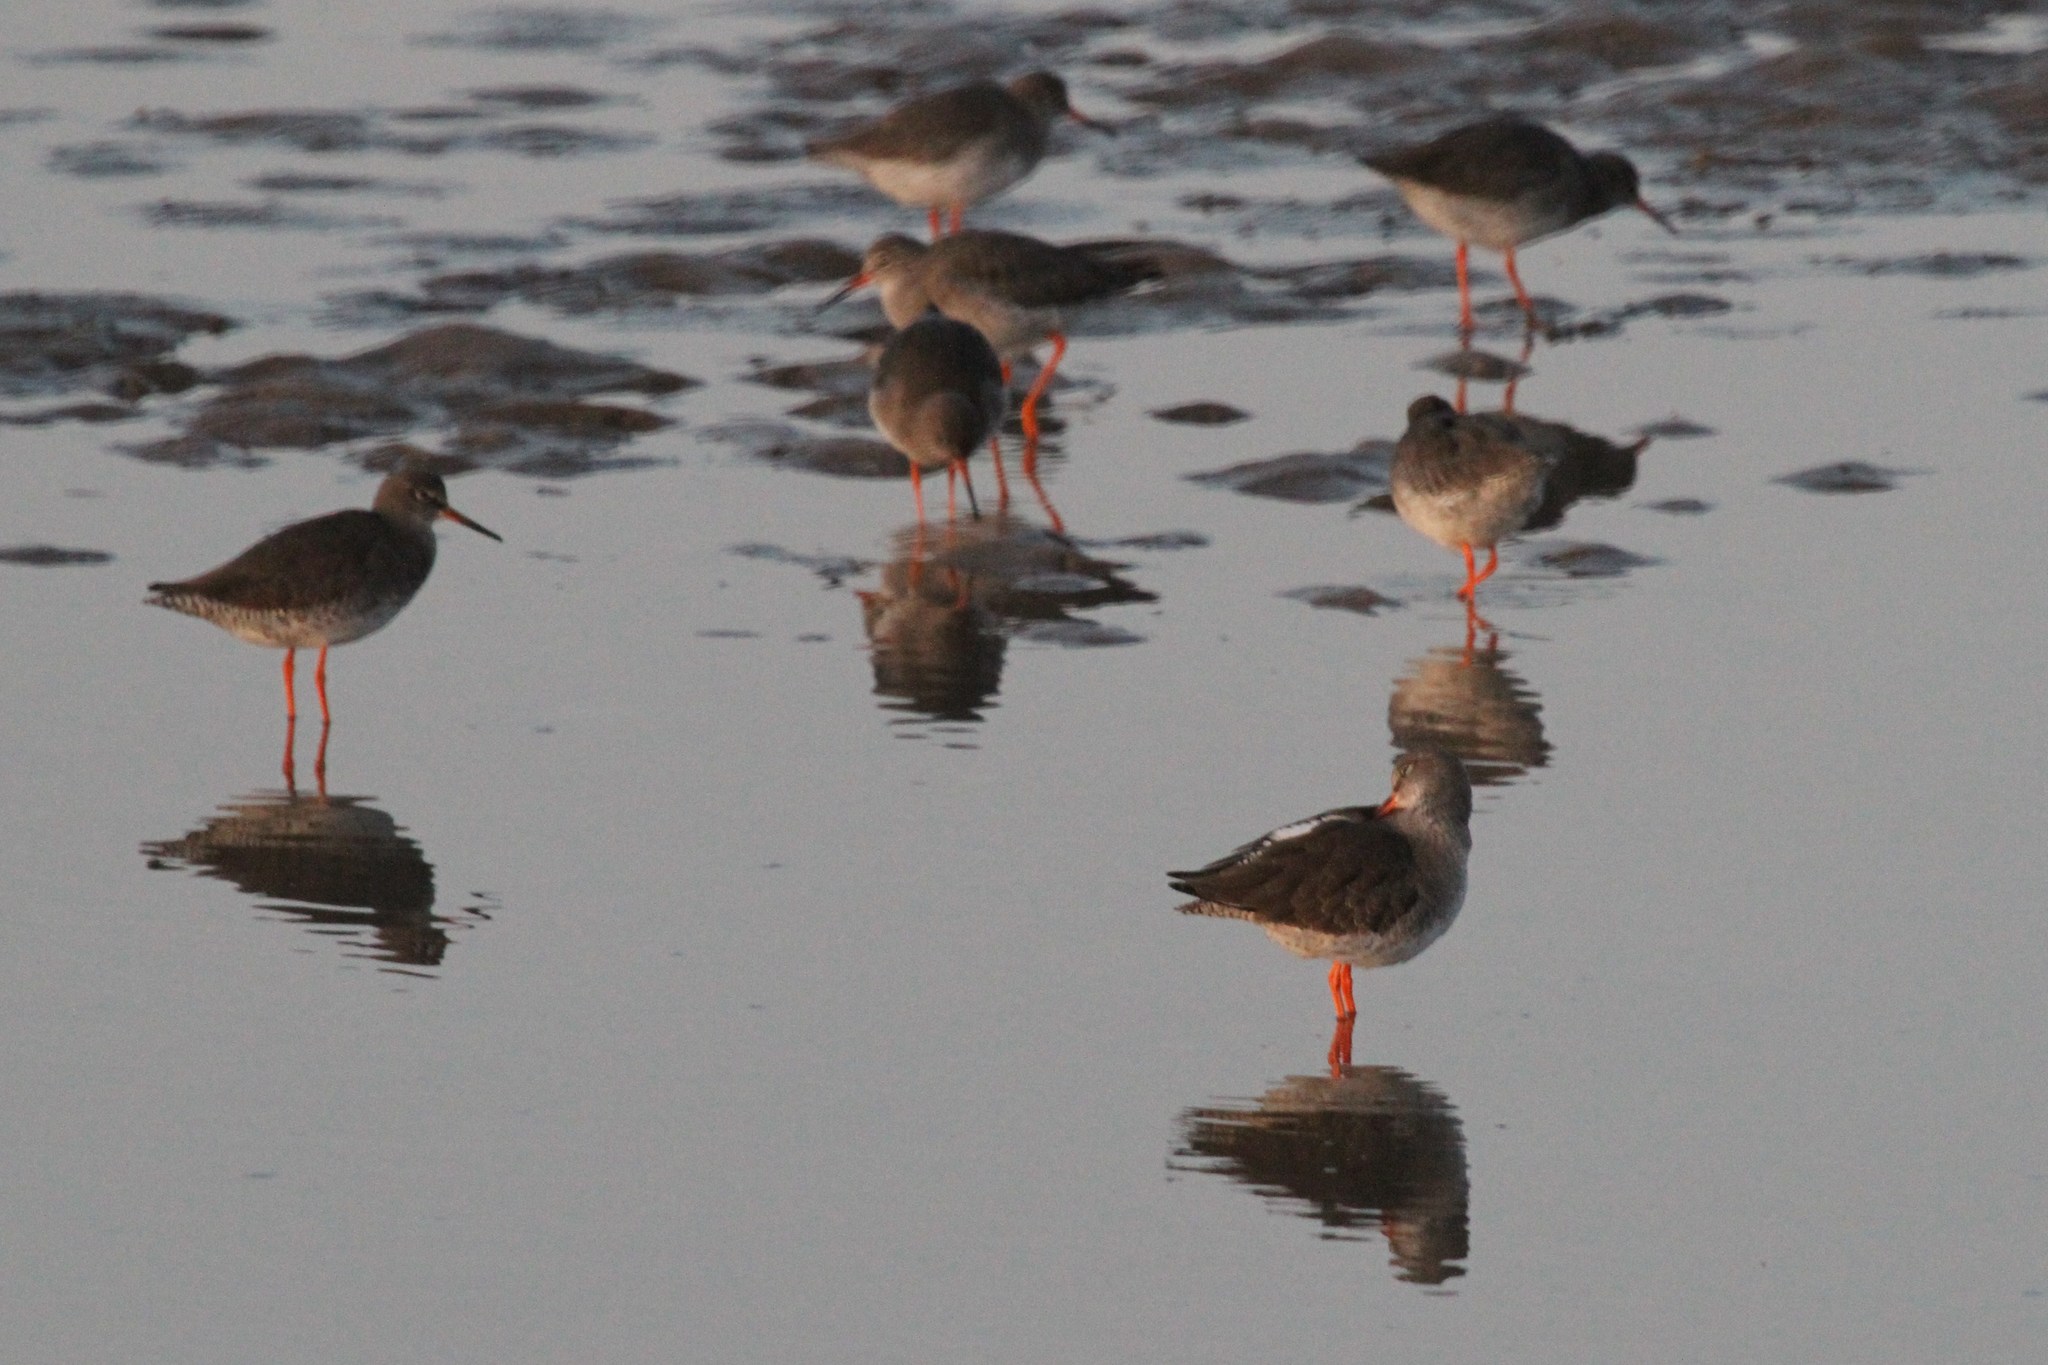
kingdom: Animalia
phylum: Chordata
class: Aves
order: Charadriiformes
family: Scolopacidae
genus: Tringa
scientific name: Tringa totanus
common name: Common redshank
